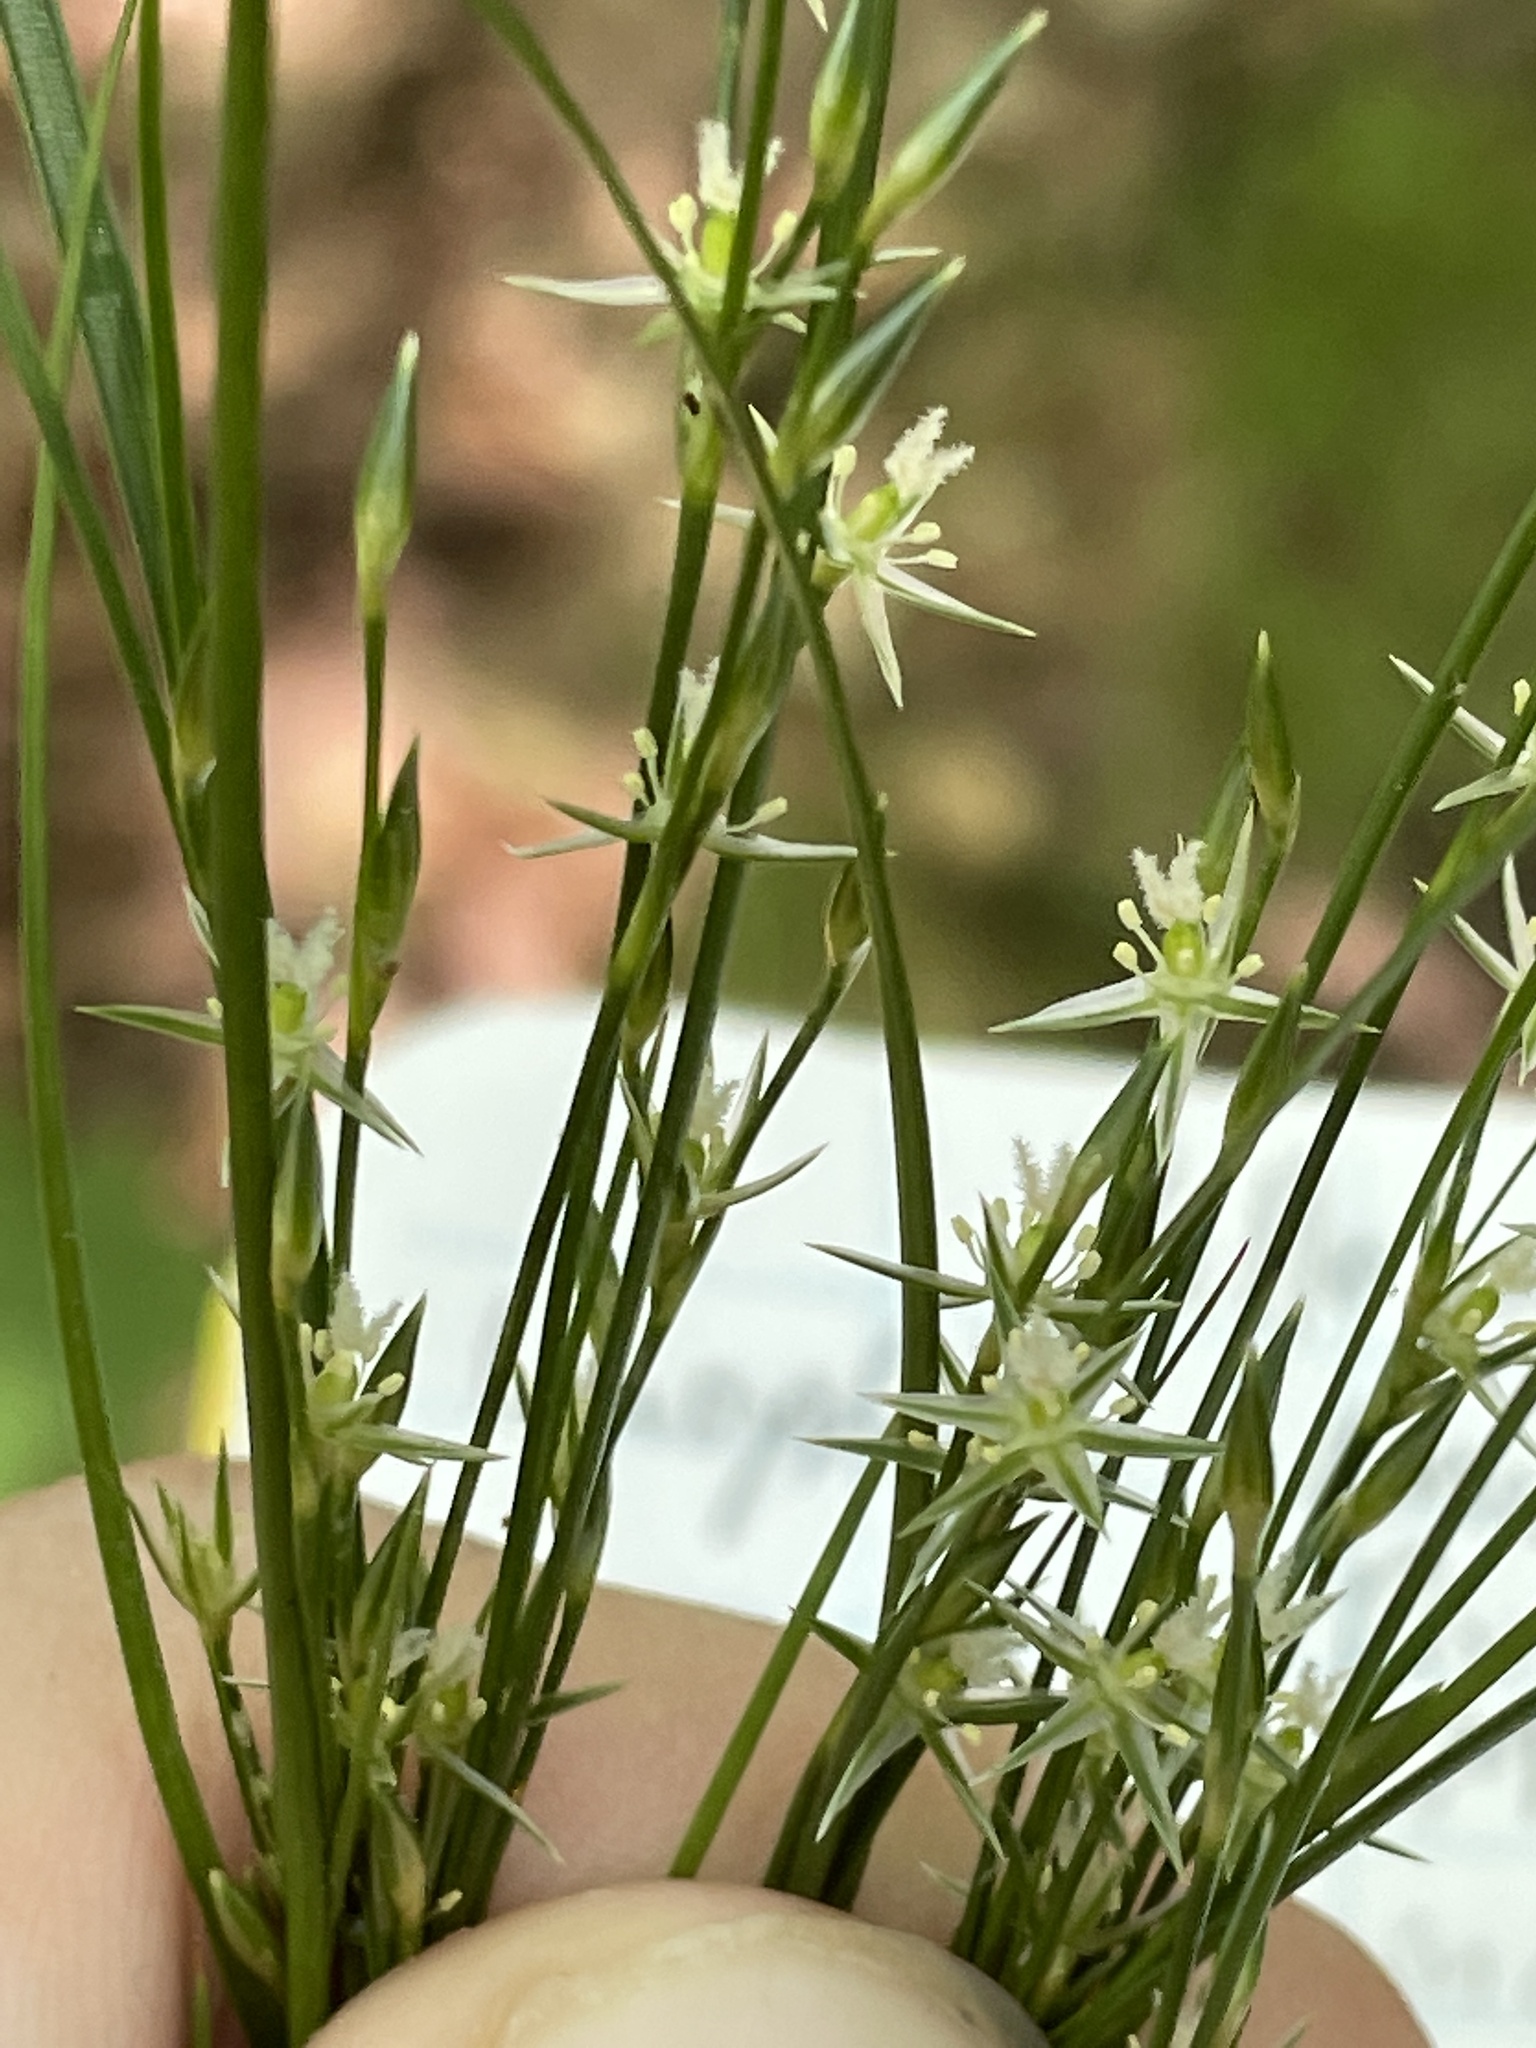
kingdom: Plantae
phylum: Tracheophyta
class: Liliopsida
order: Poales
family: Juncaceae
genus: Juncus
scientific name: Juncus tenuis
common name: Slender rush
